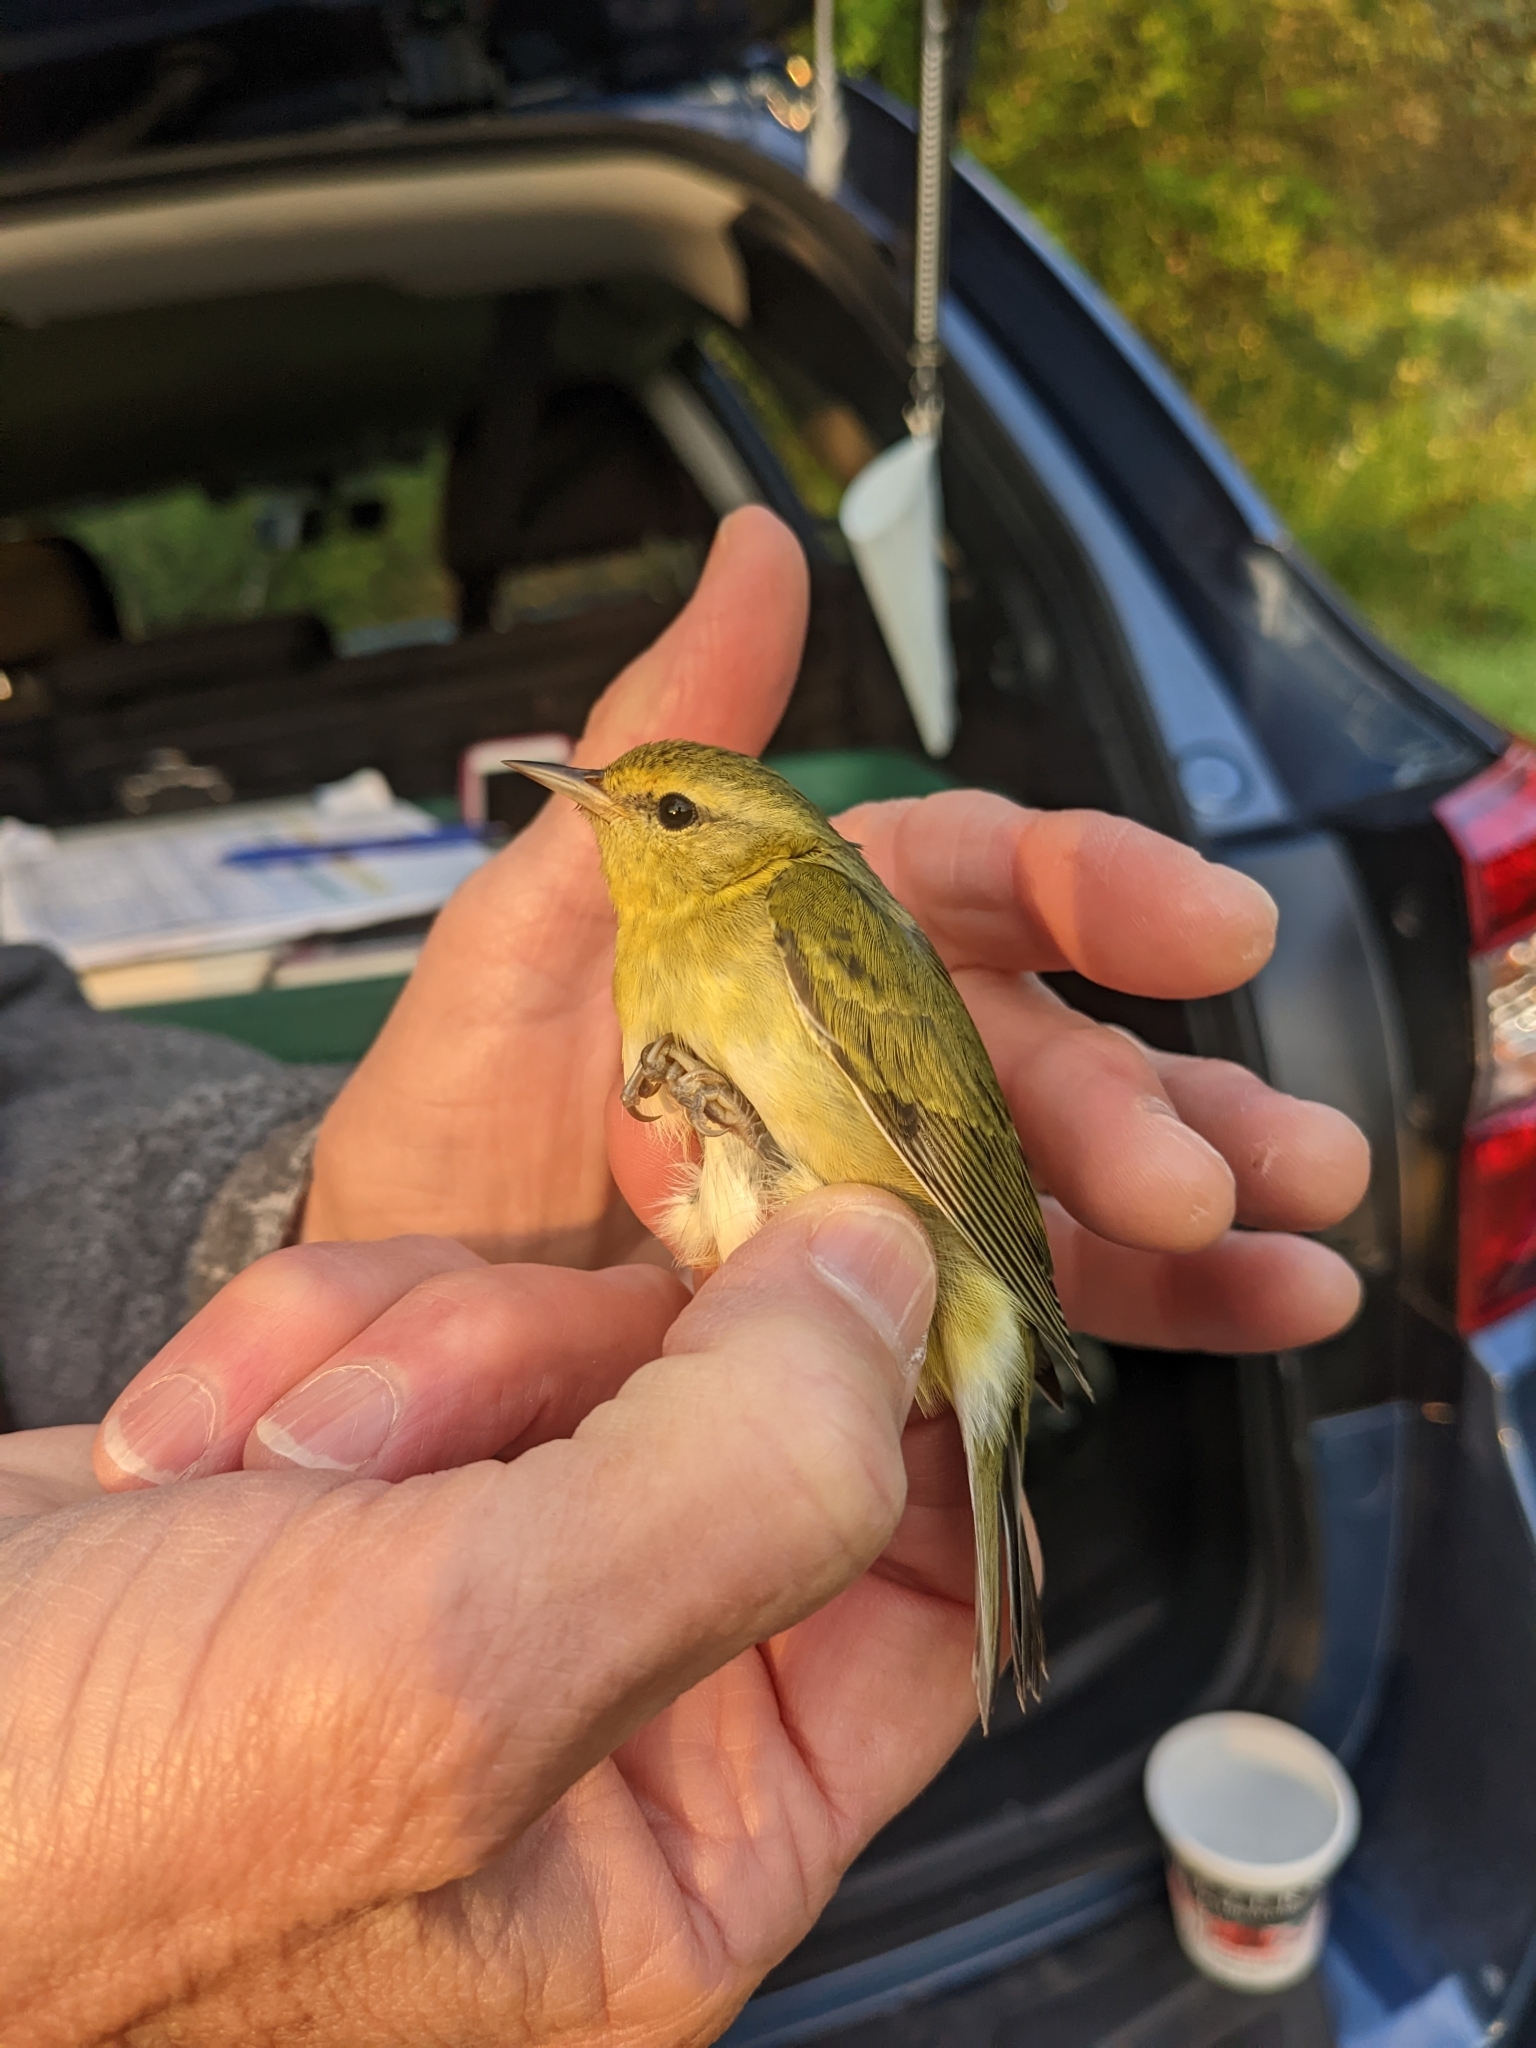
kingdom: Animalia
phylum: Chordata
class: Aves
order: Passeriformes
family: Parulidae
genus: Leiothlypis
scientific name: Leiothlypis peregrina
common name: Tennessee warbler
